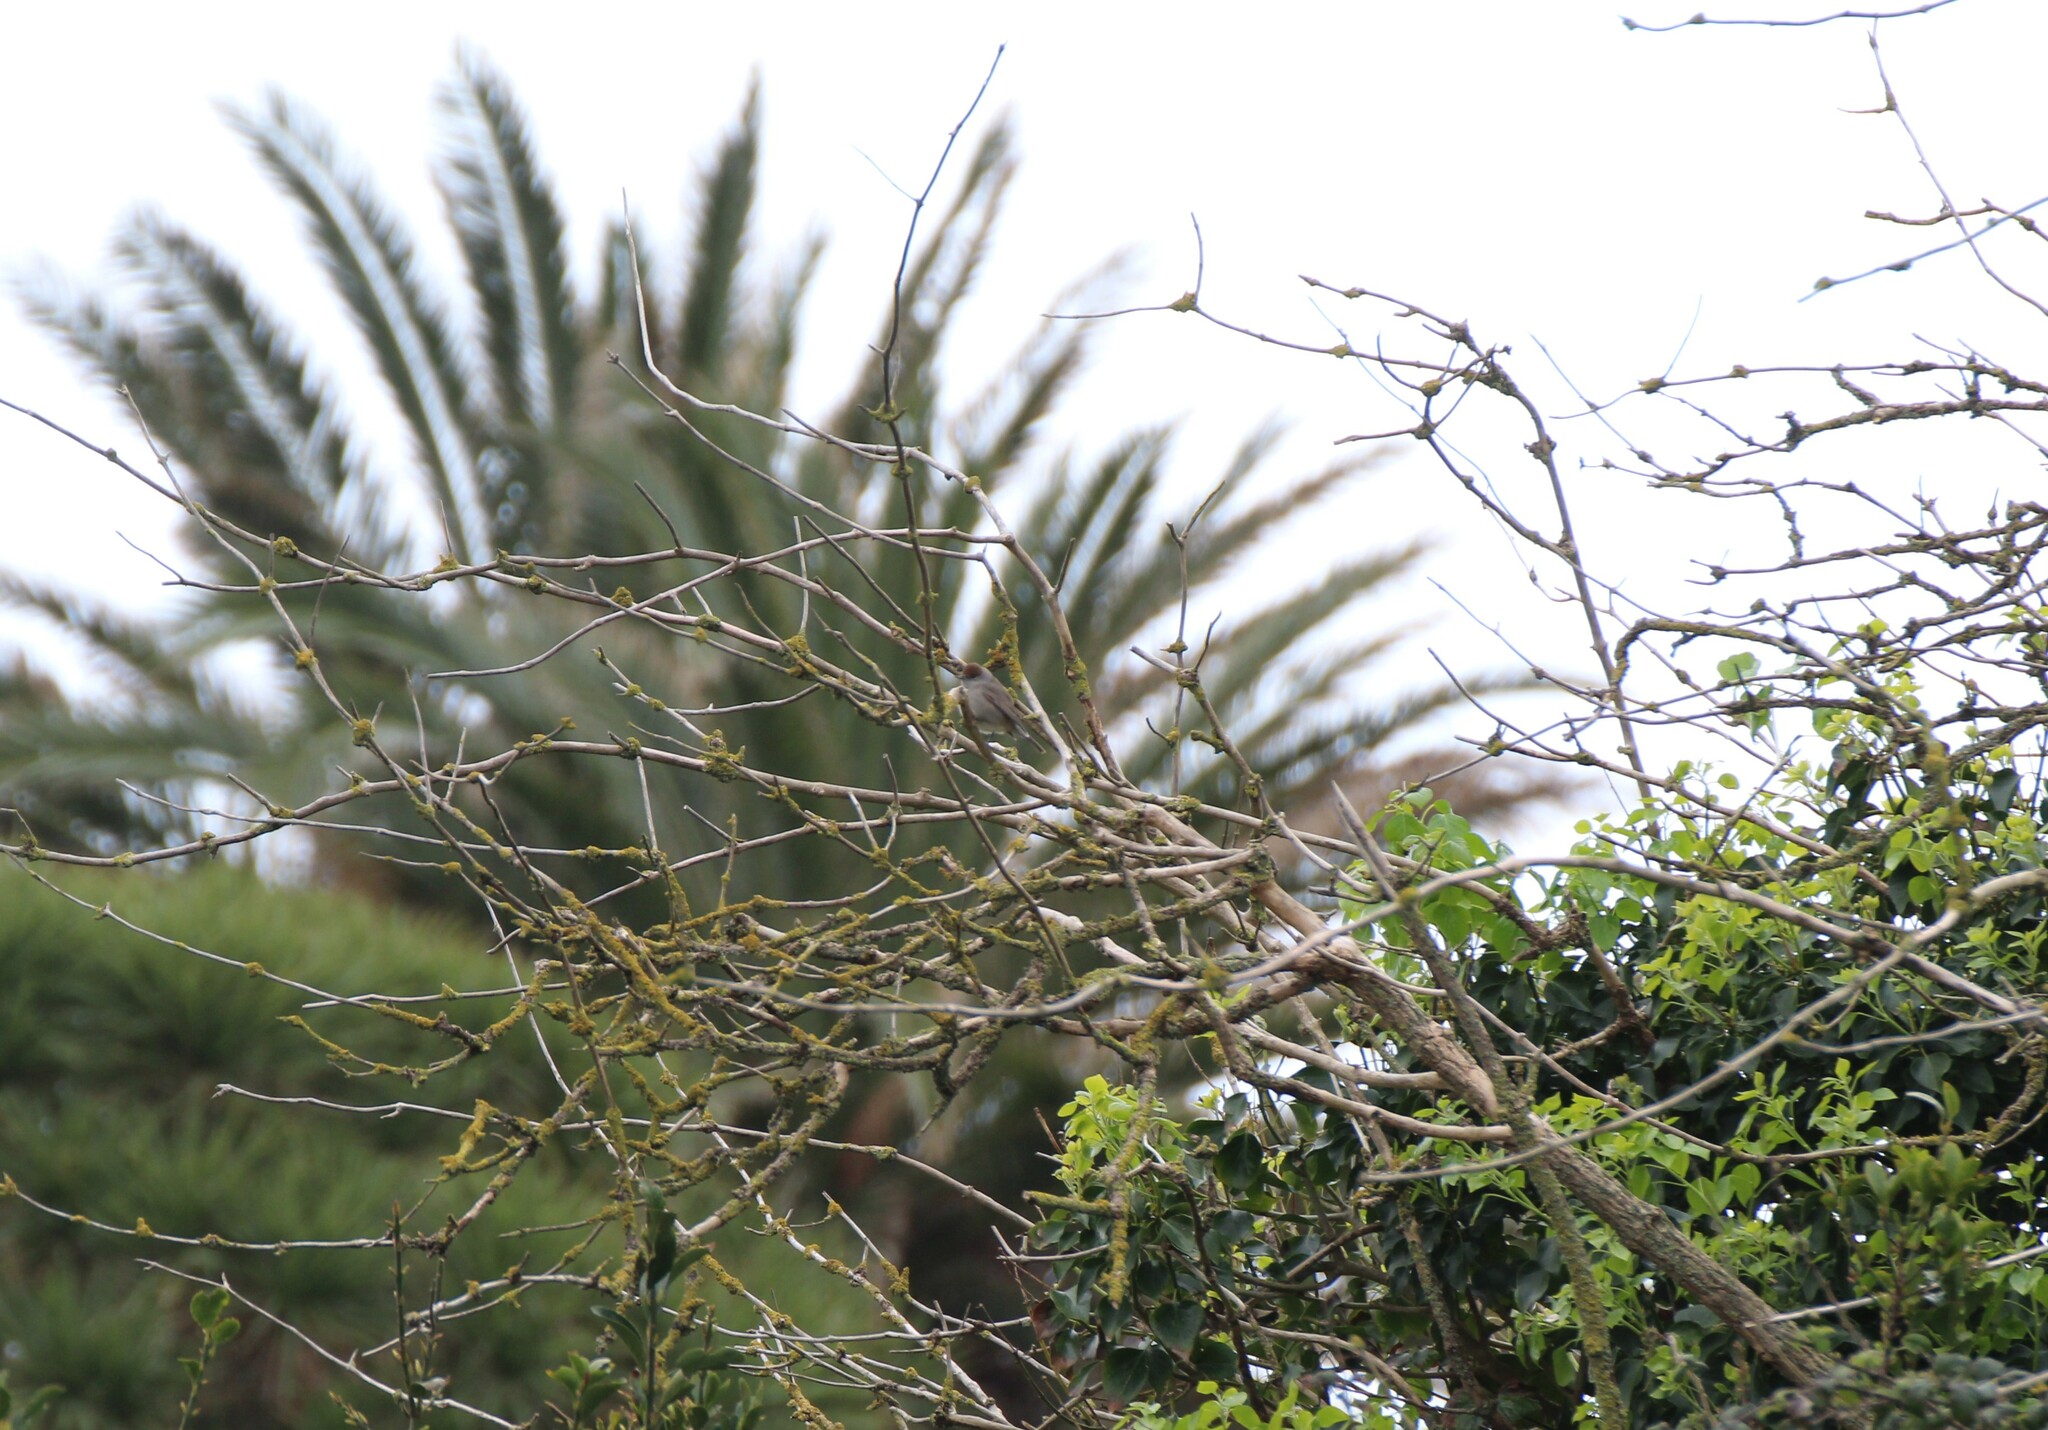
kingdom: Animalia
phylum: Chordata
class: Aves
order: Passeriformes
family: Sylviidae
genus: Sylvia
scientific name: Sylvia atricapilla
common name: Eurasian blackcap
